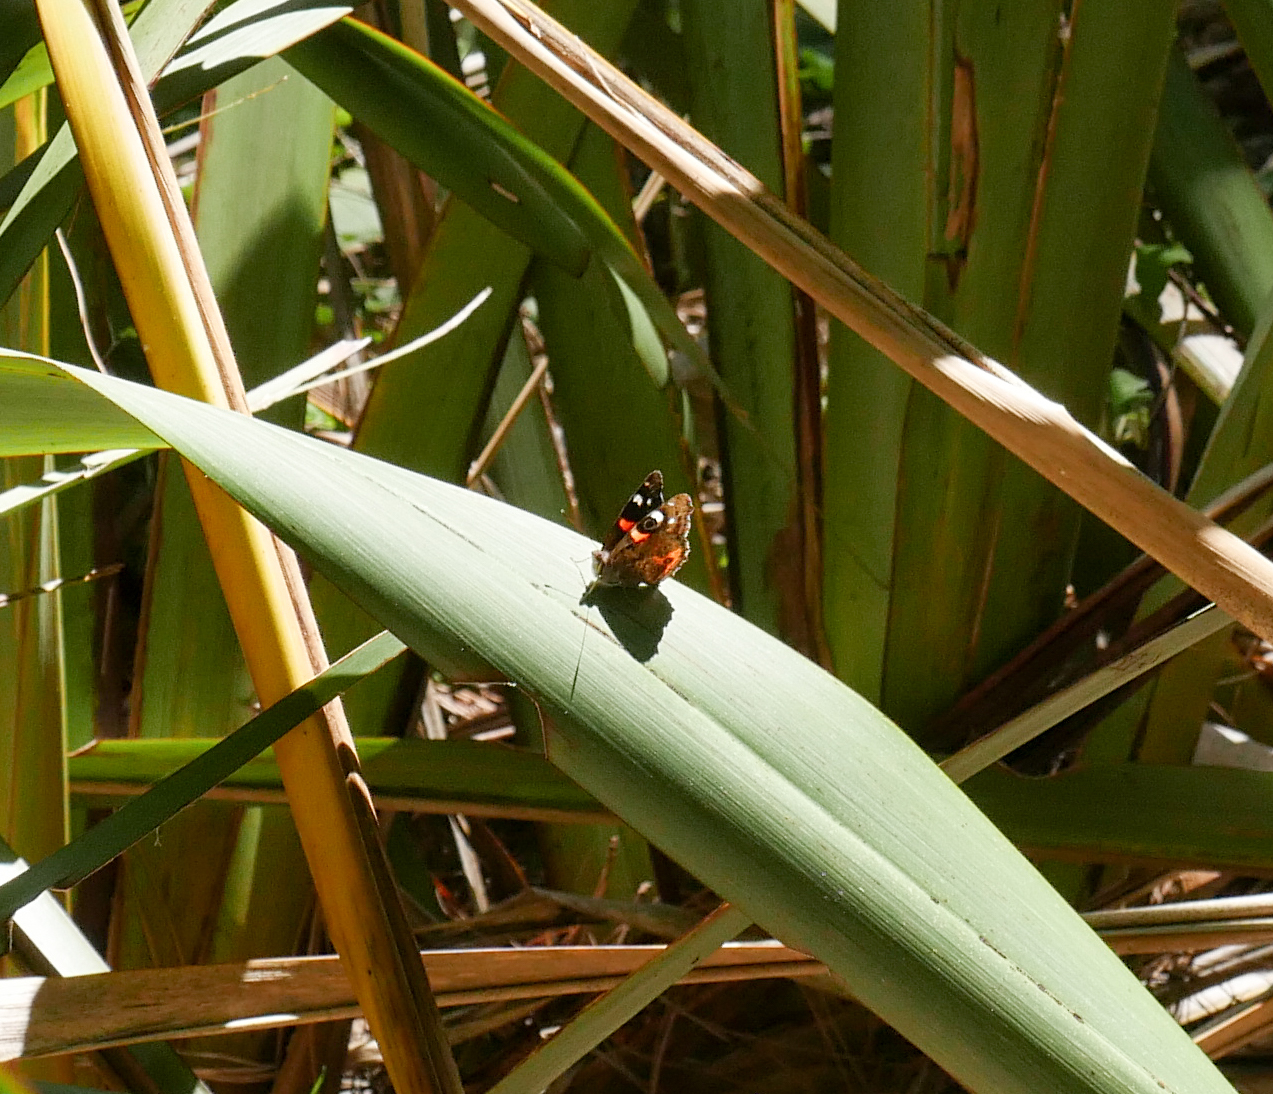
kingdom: Animalia
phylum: Arthropoda
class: Insecta
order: Lepidoptera
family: Nymphalidae
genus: Vanessa
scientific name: Vanessa gonerilla
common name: New zealand red admiral
